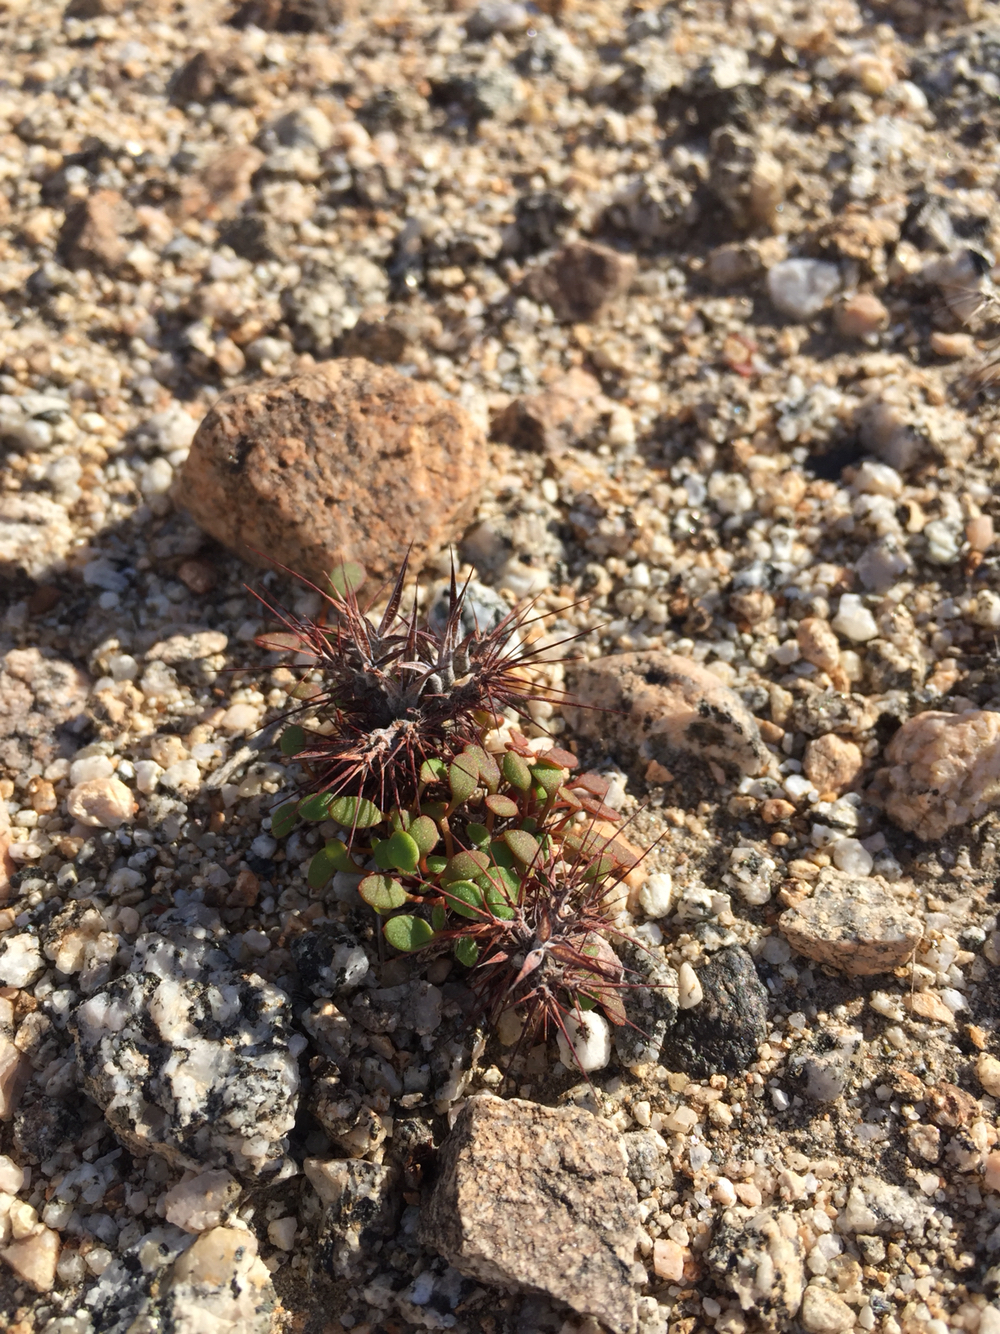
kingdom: Plantae
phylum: Tracheophyta
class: Magnoliopsida
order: Caryophyllales
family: Polygonaceae
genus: Chorizanthe
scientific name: Chorizanthe rigida
